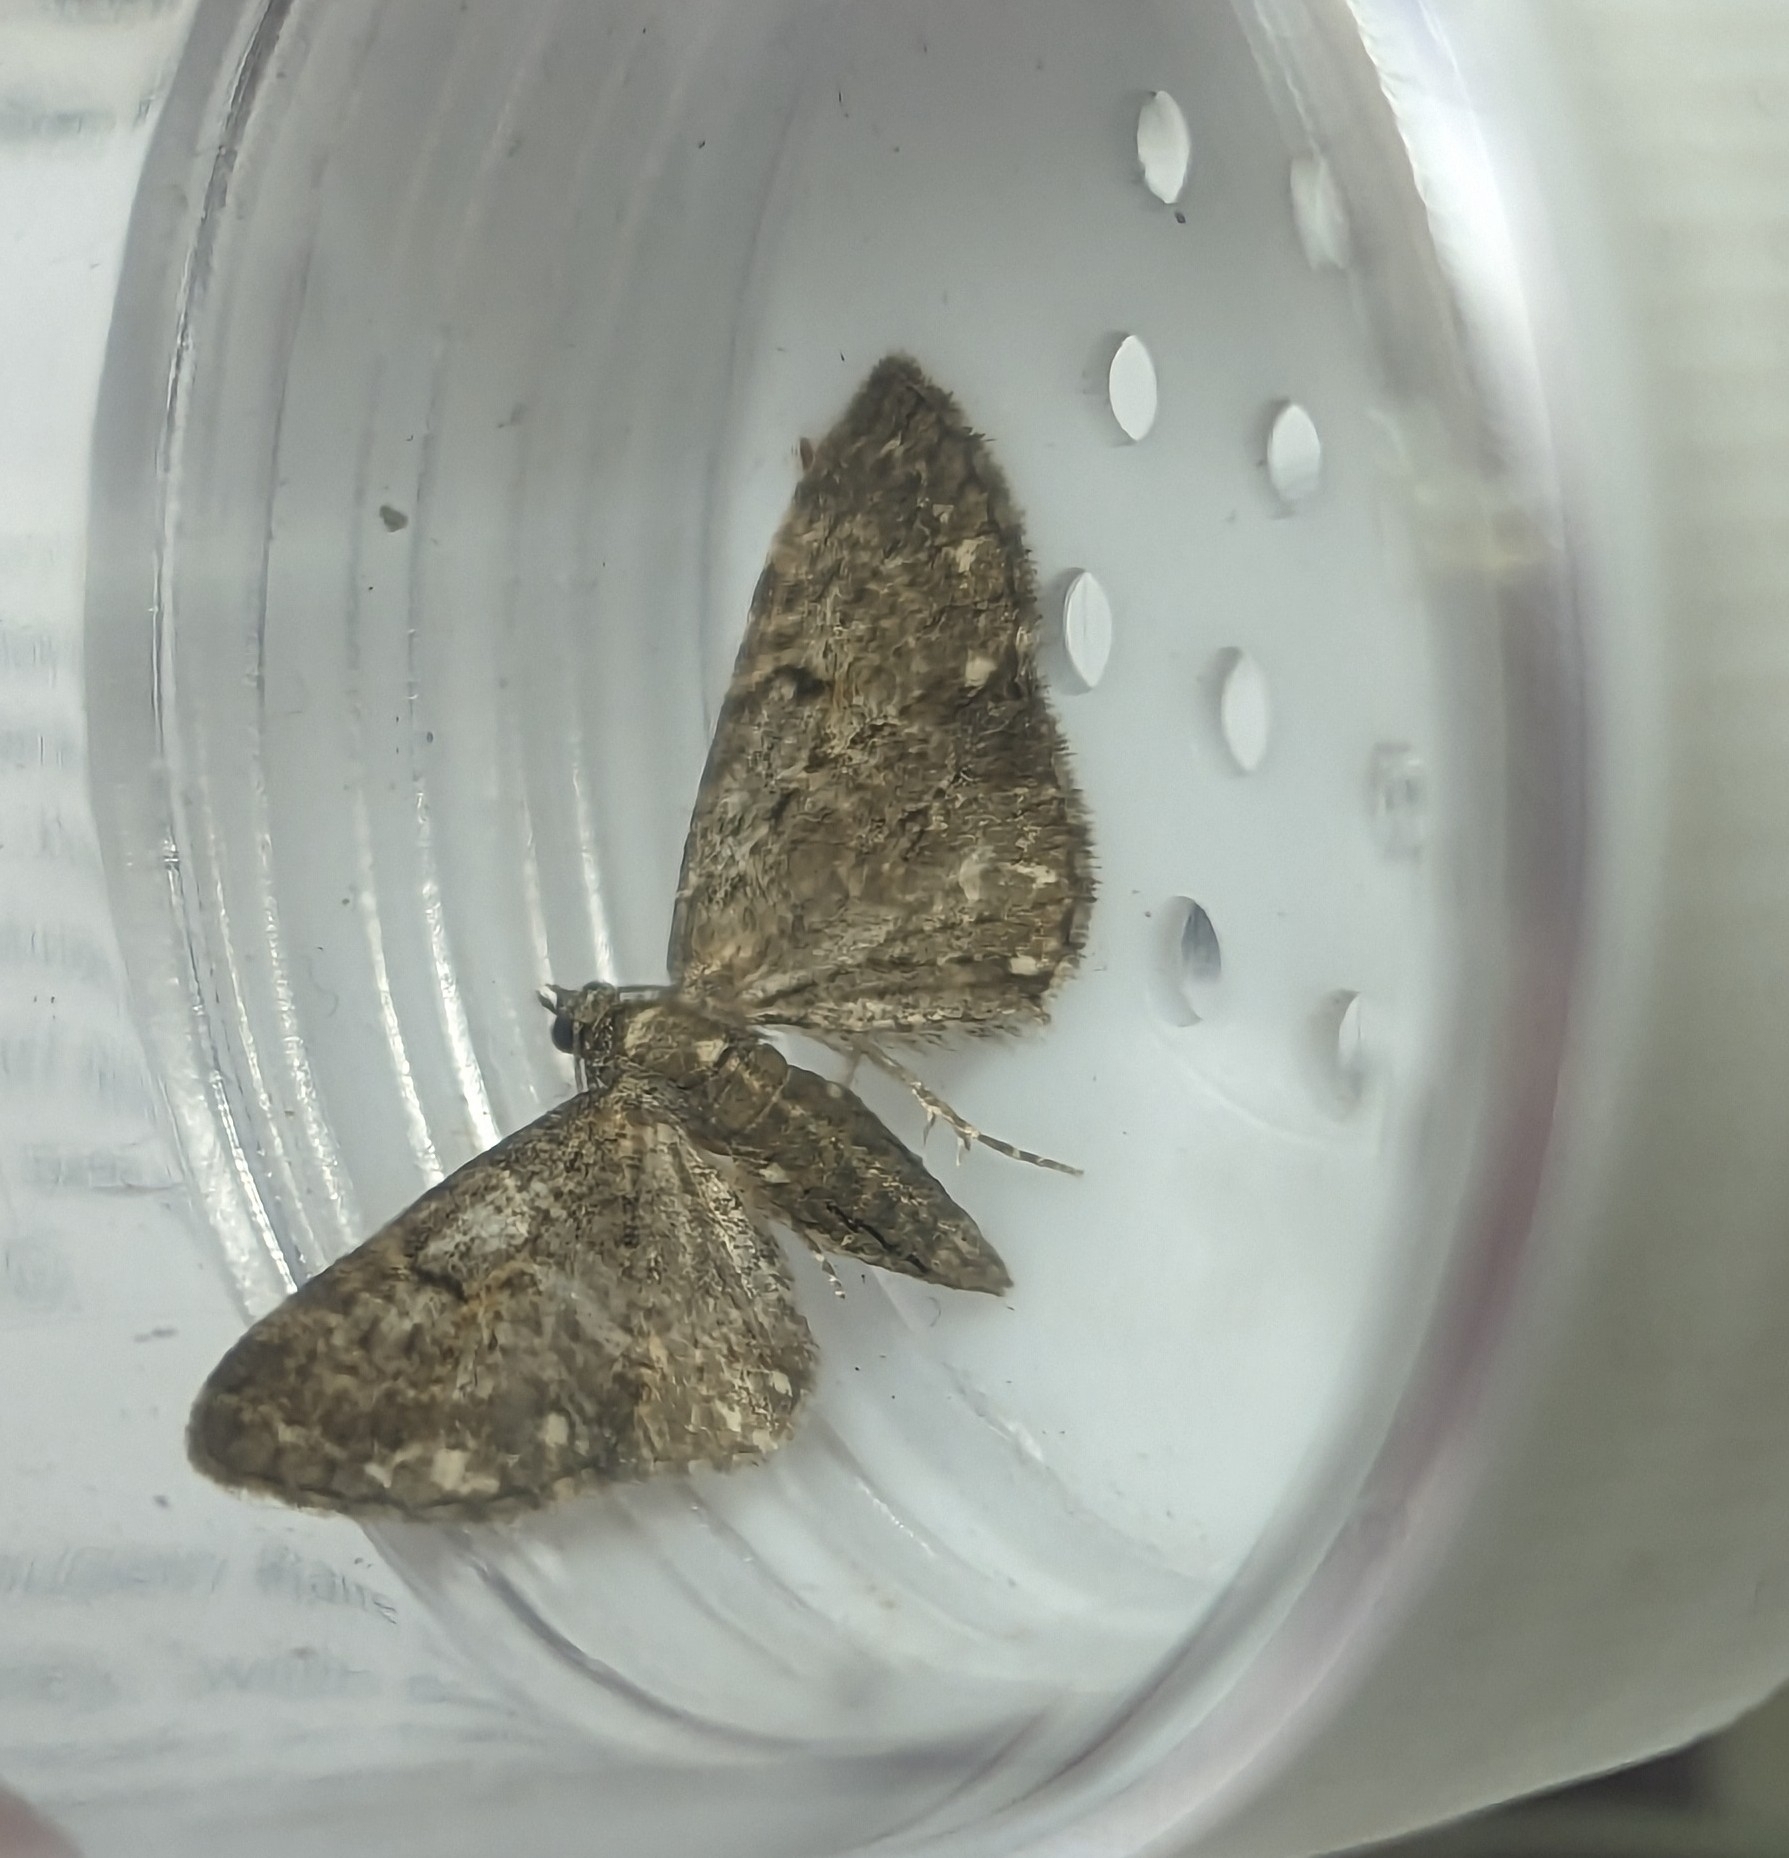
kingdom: Animalia
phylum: Arthropoda
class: Insecta
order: Lepidoptera
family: Geometridae
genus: Eupithecia
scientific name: Eupithecia tripunctaria
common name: White-spotted pug
